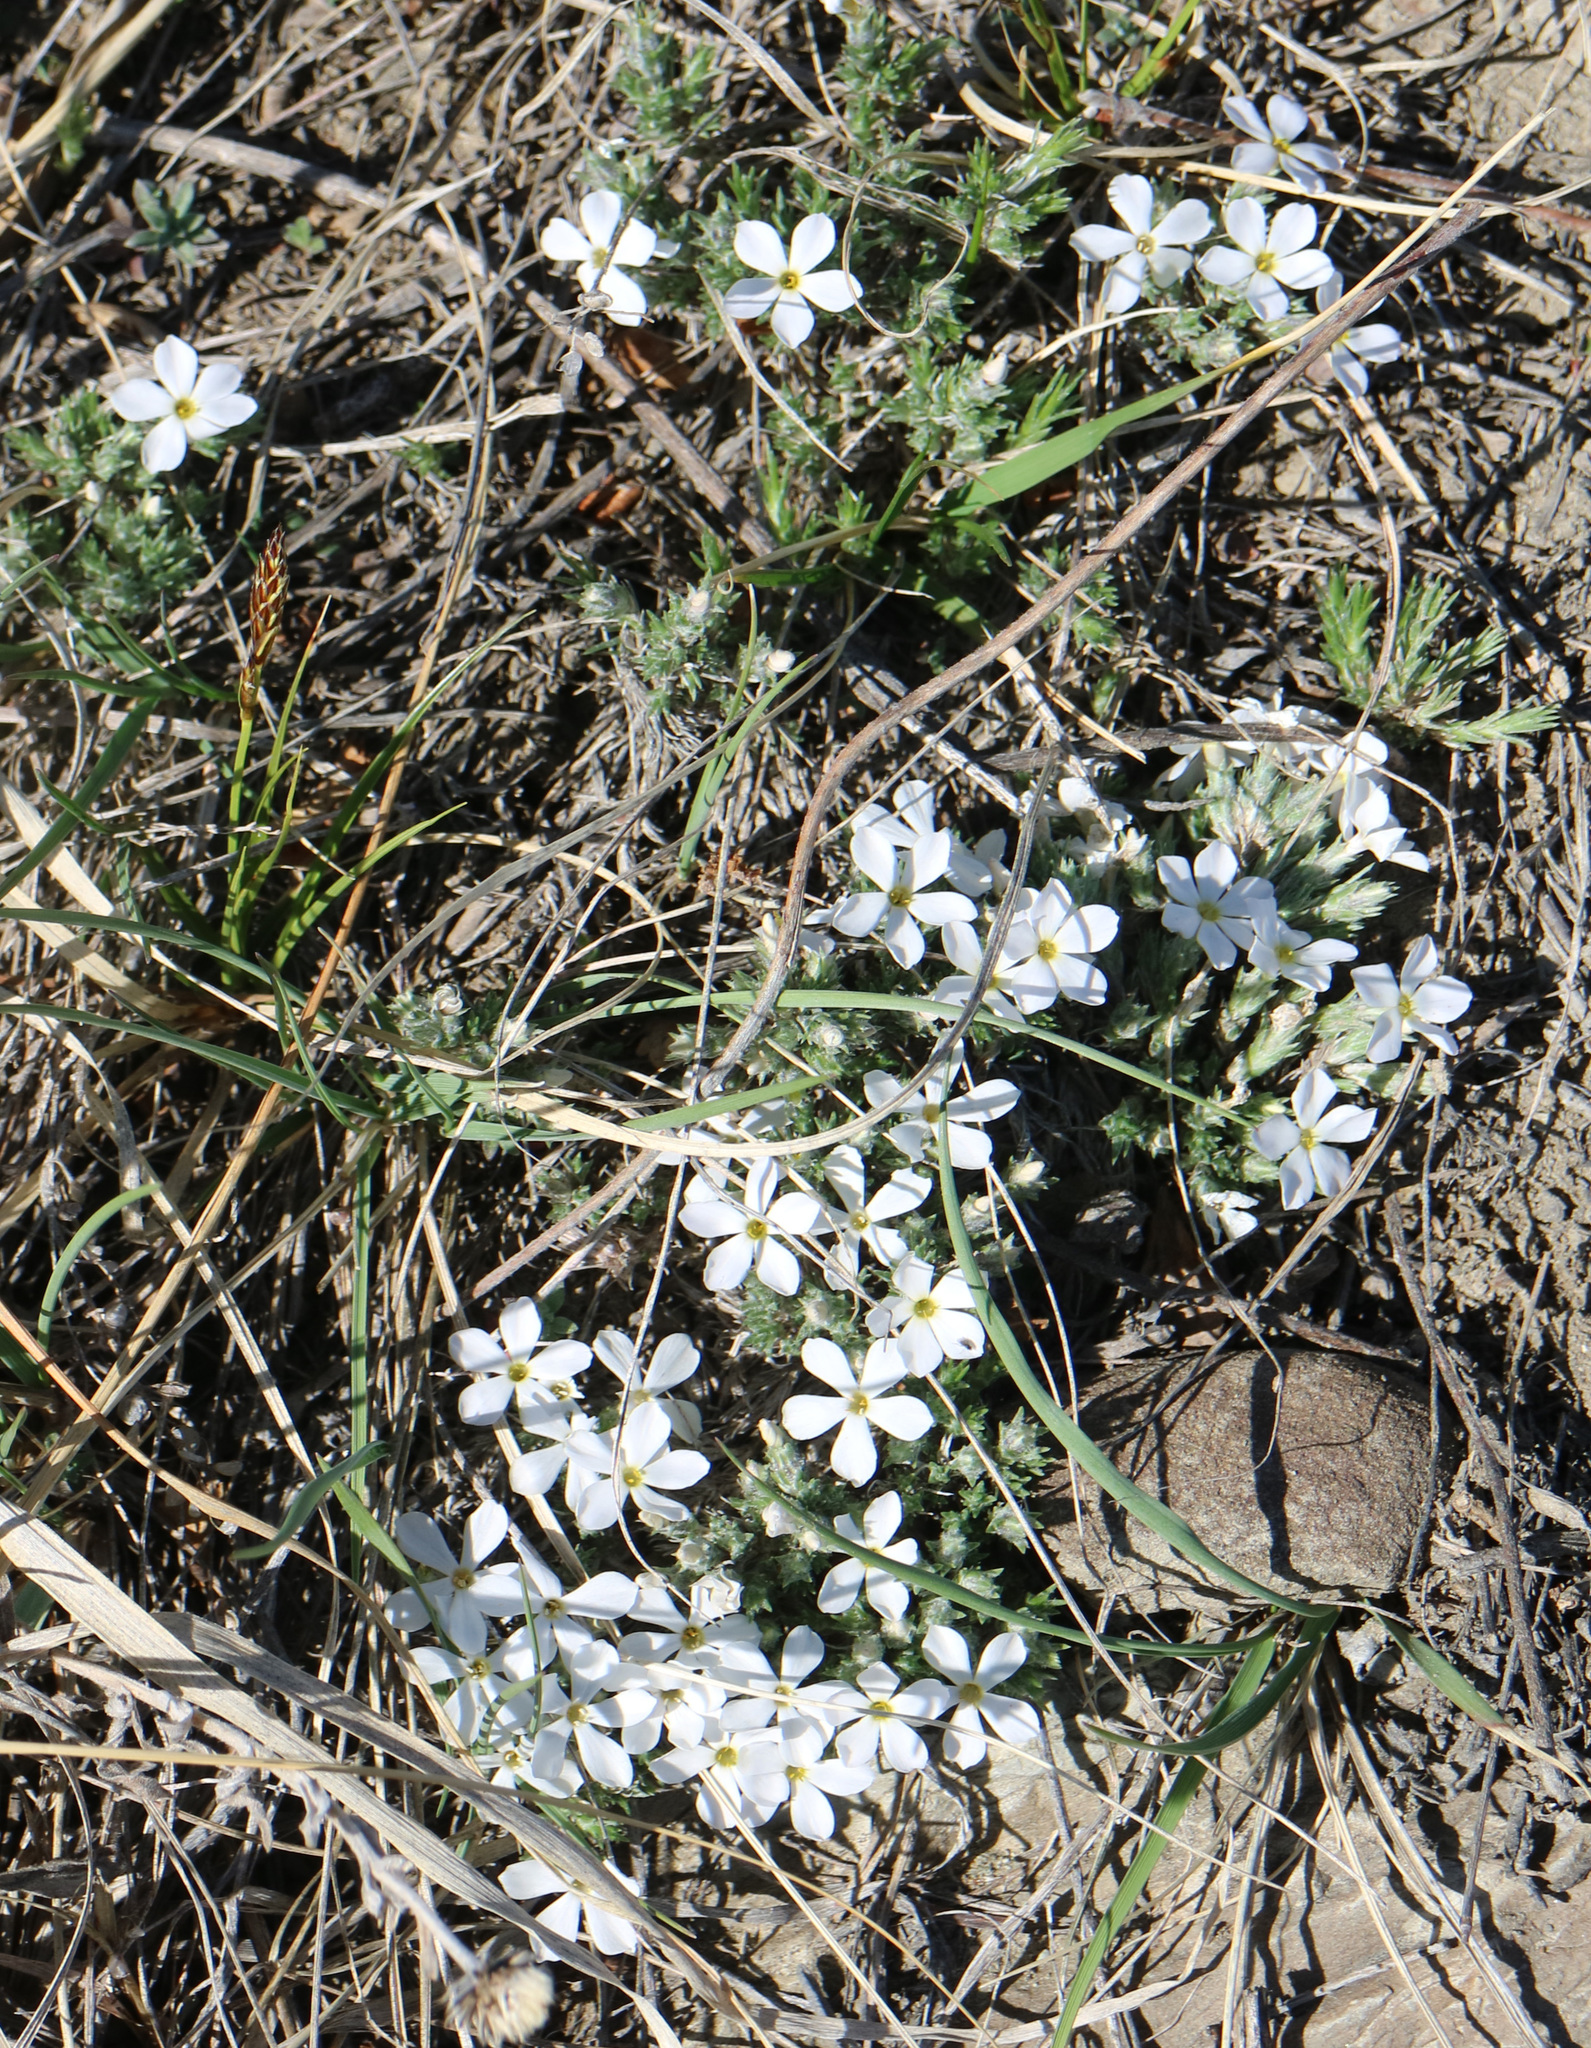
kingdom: Plantae
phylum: Tracheophyta
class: Magnoliopsida
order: Ericales
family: Polemoniaceae
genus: Phlox
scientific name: Phlox hoodii
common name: Moss phlox
